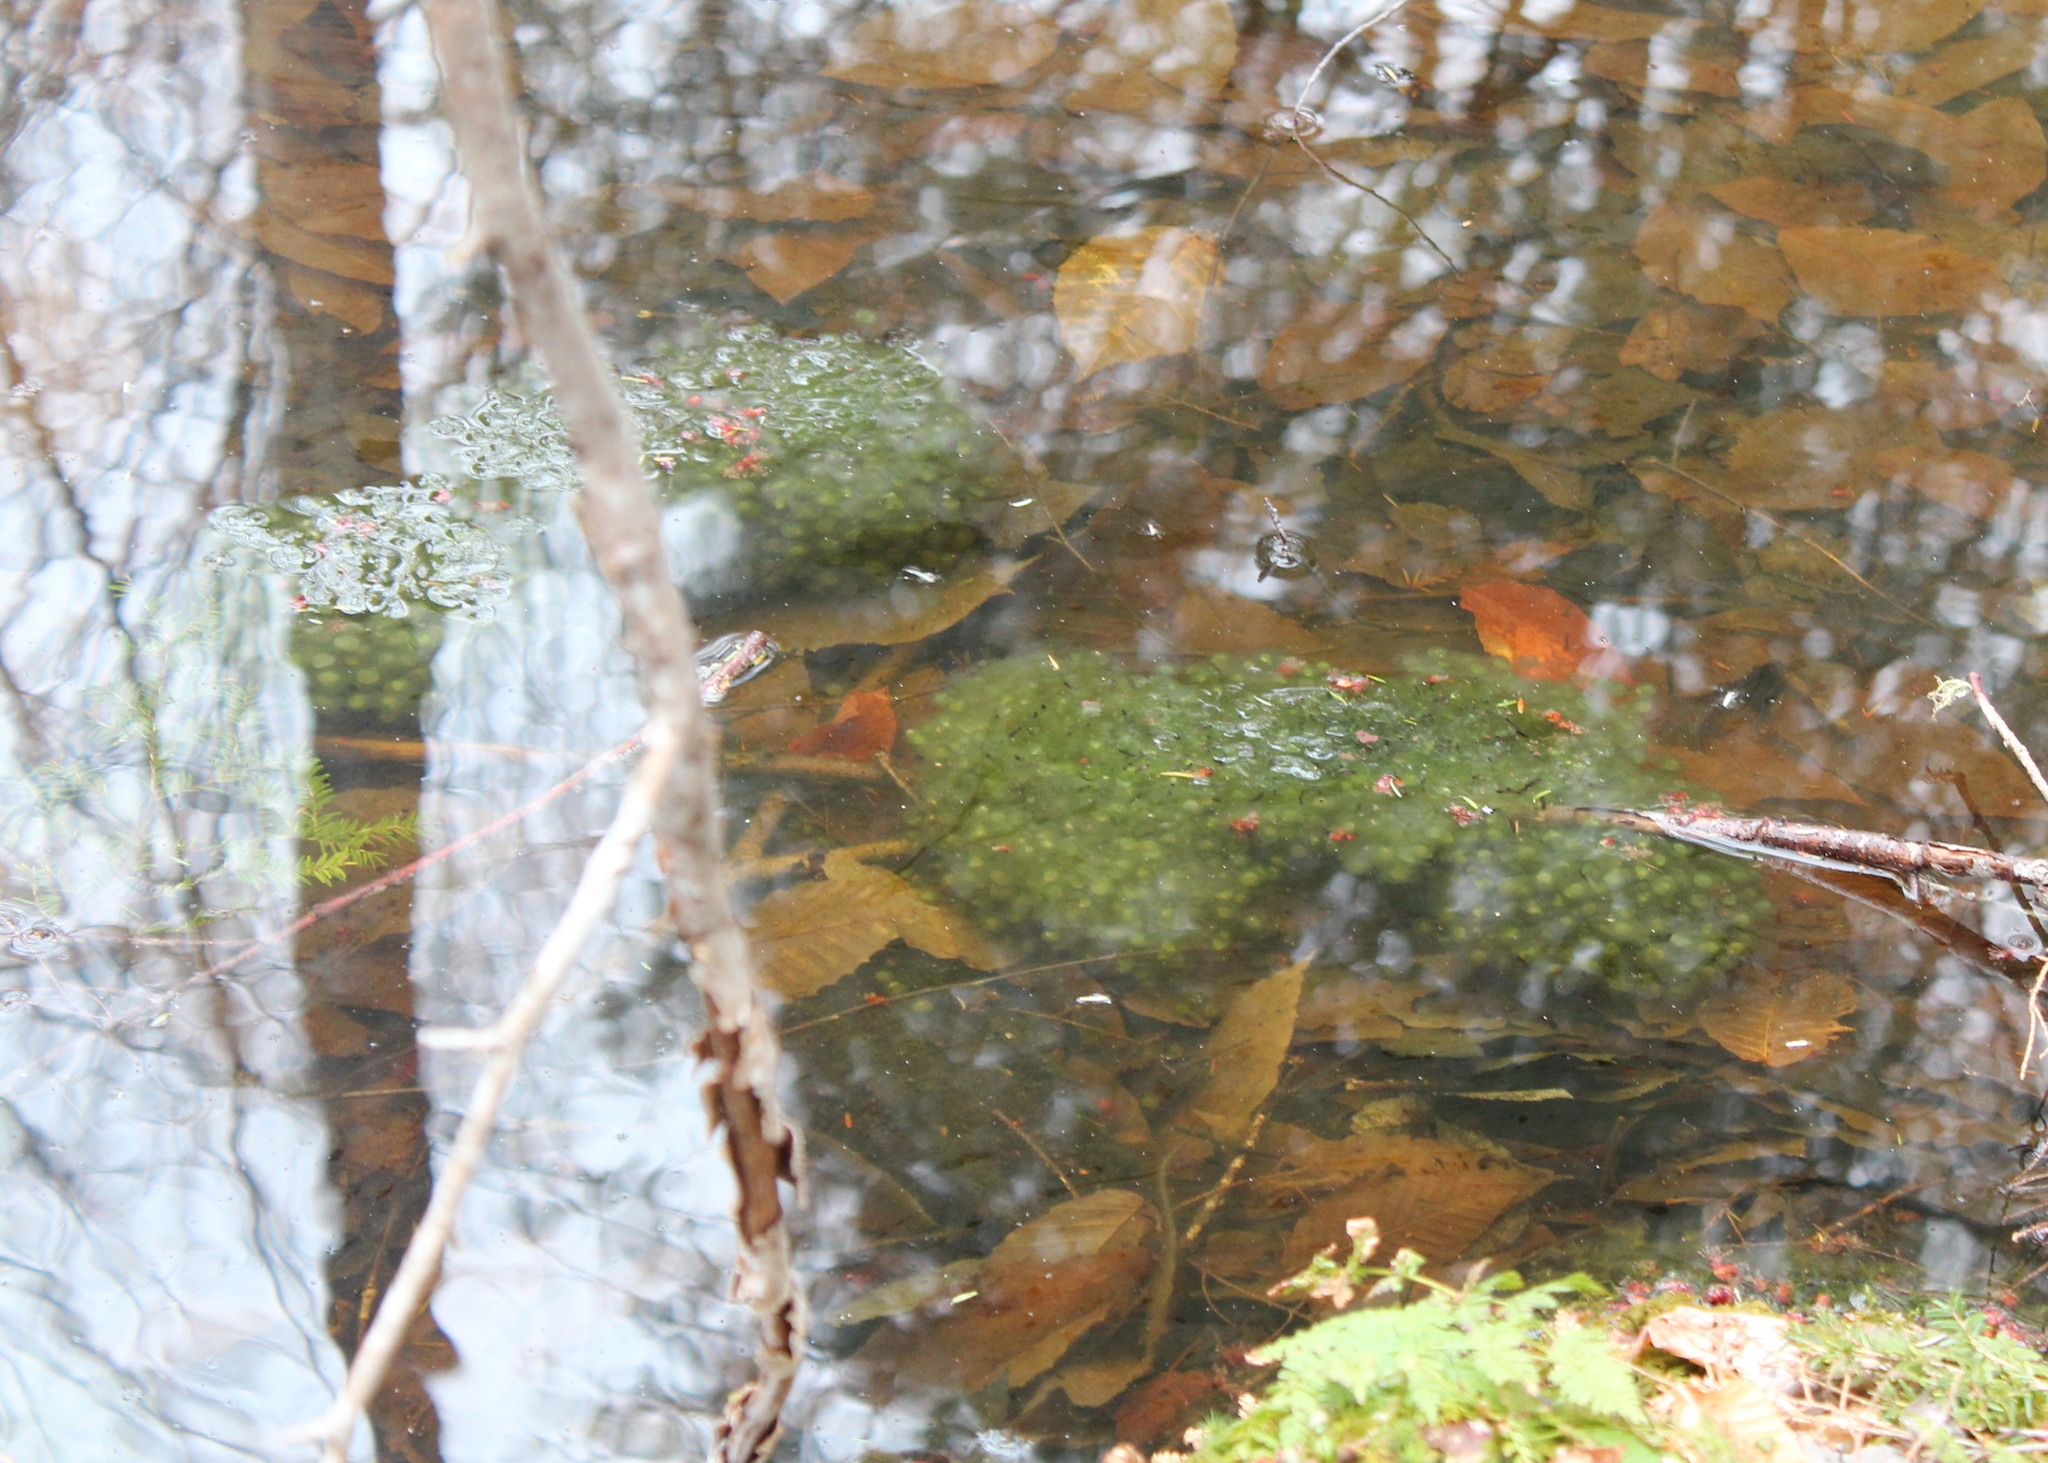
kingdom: Animalia
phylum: Chordata
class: Amphibia
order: Anura
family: Ranidae
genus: Lithobates
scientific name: Lithobates sylvaticus
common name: Wood frog
